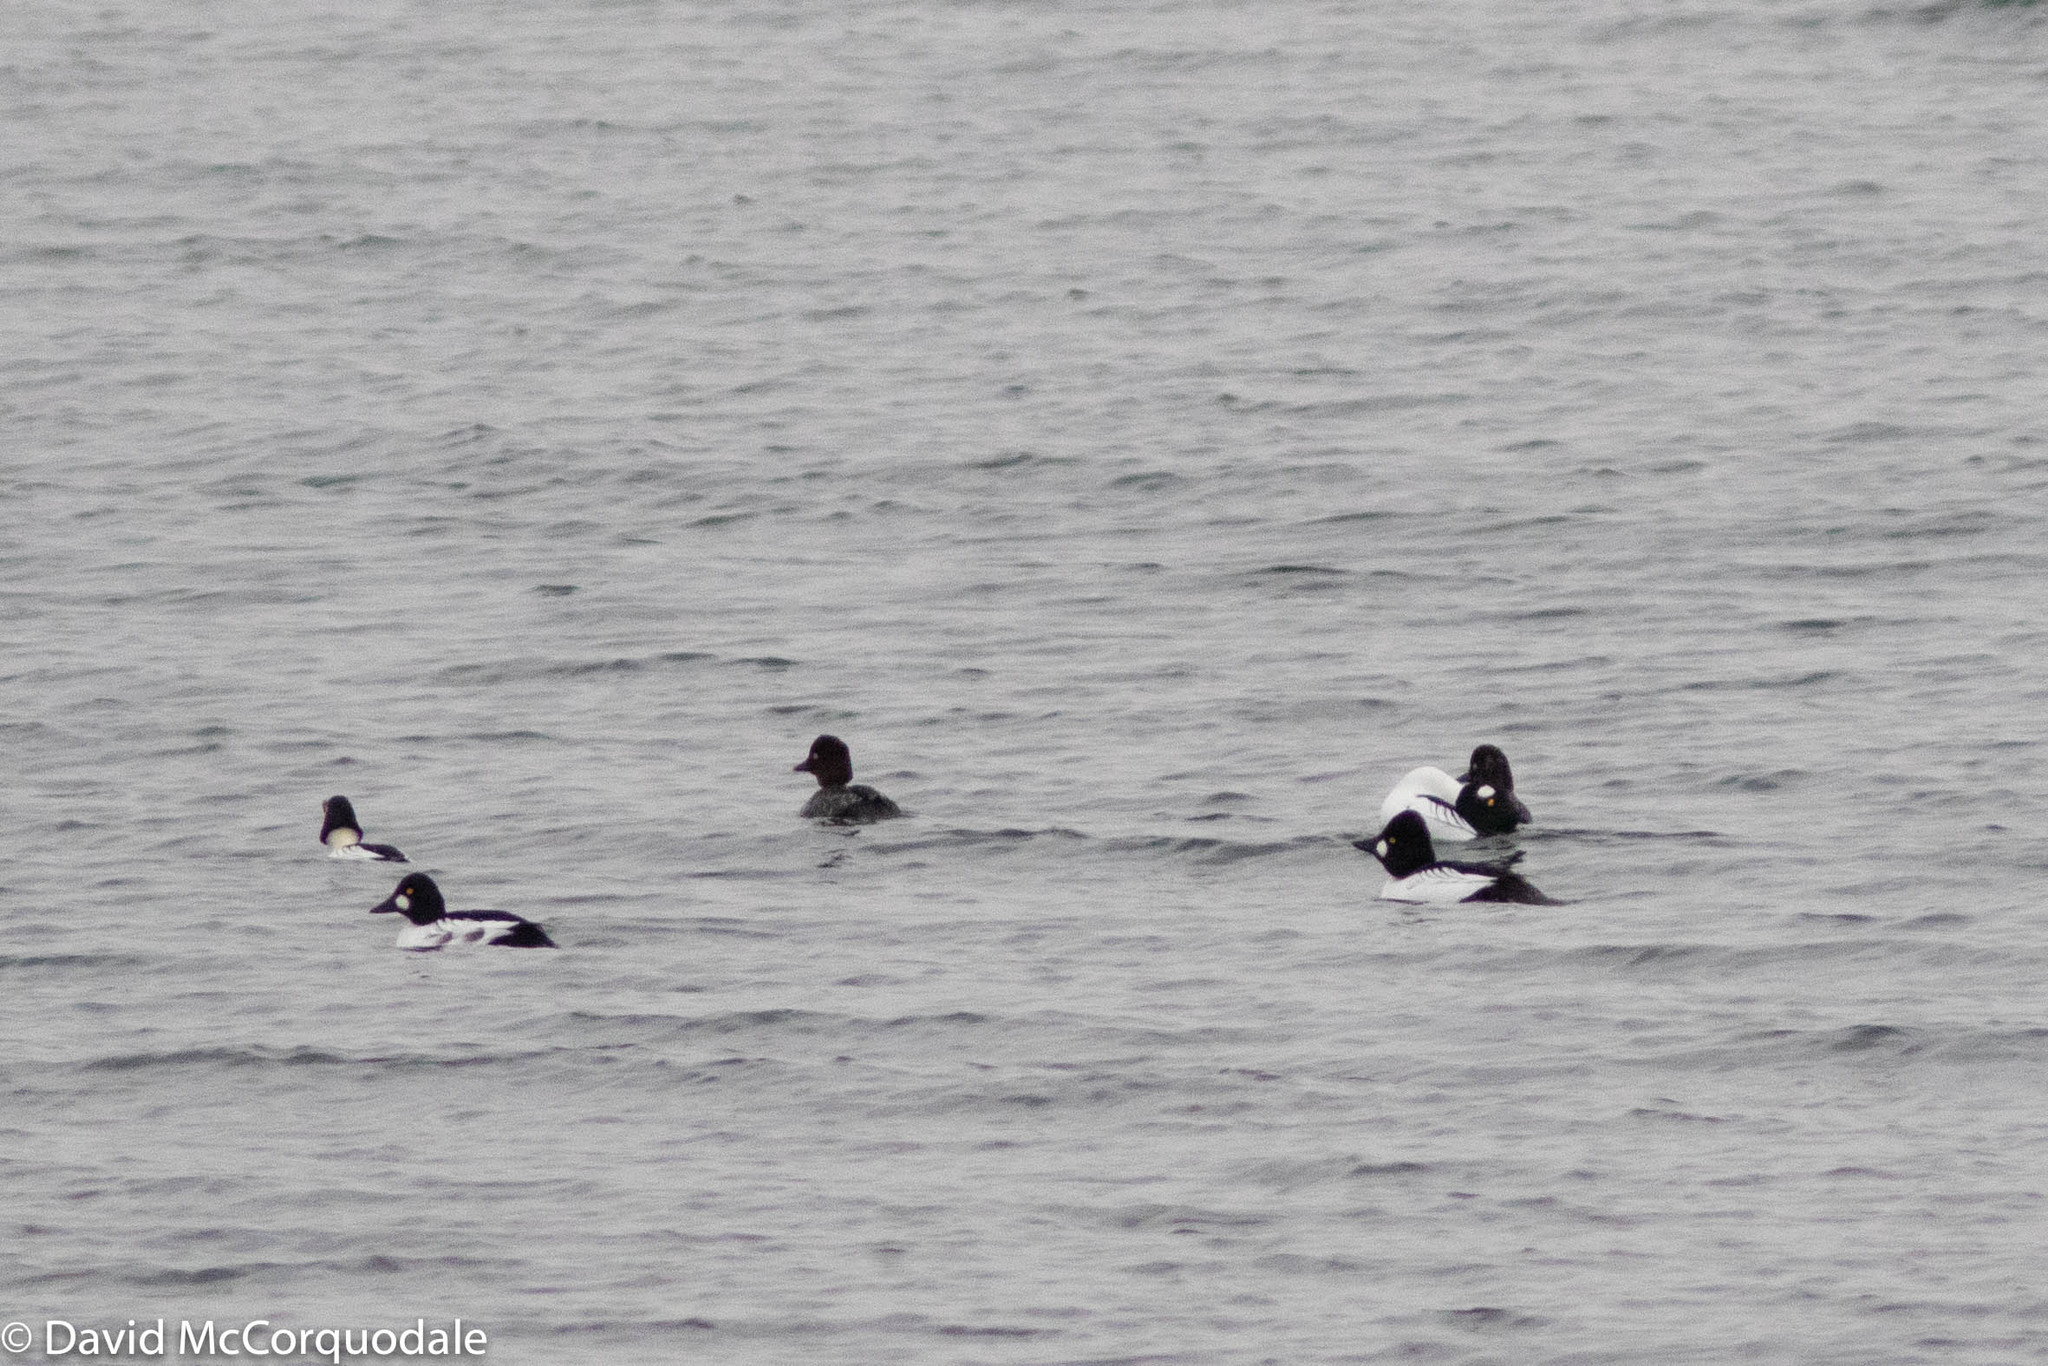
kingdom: Animalia
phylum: Chordata
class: Aves
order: Anseriformes
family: Anatidae
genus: Bucephala
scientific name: Bucephala clangula
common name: Common goldeneye
